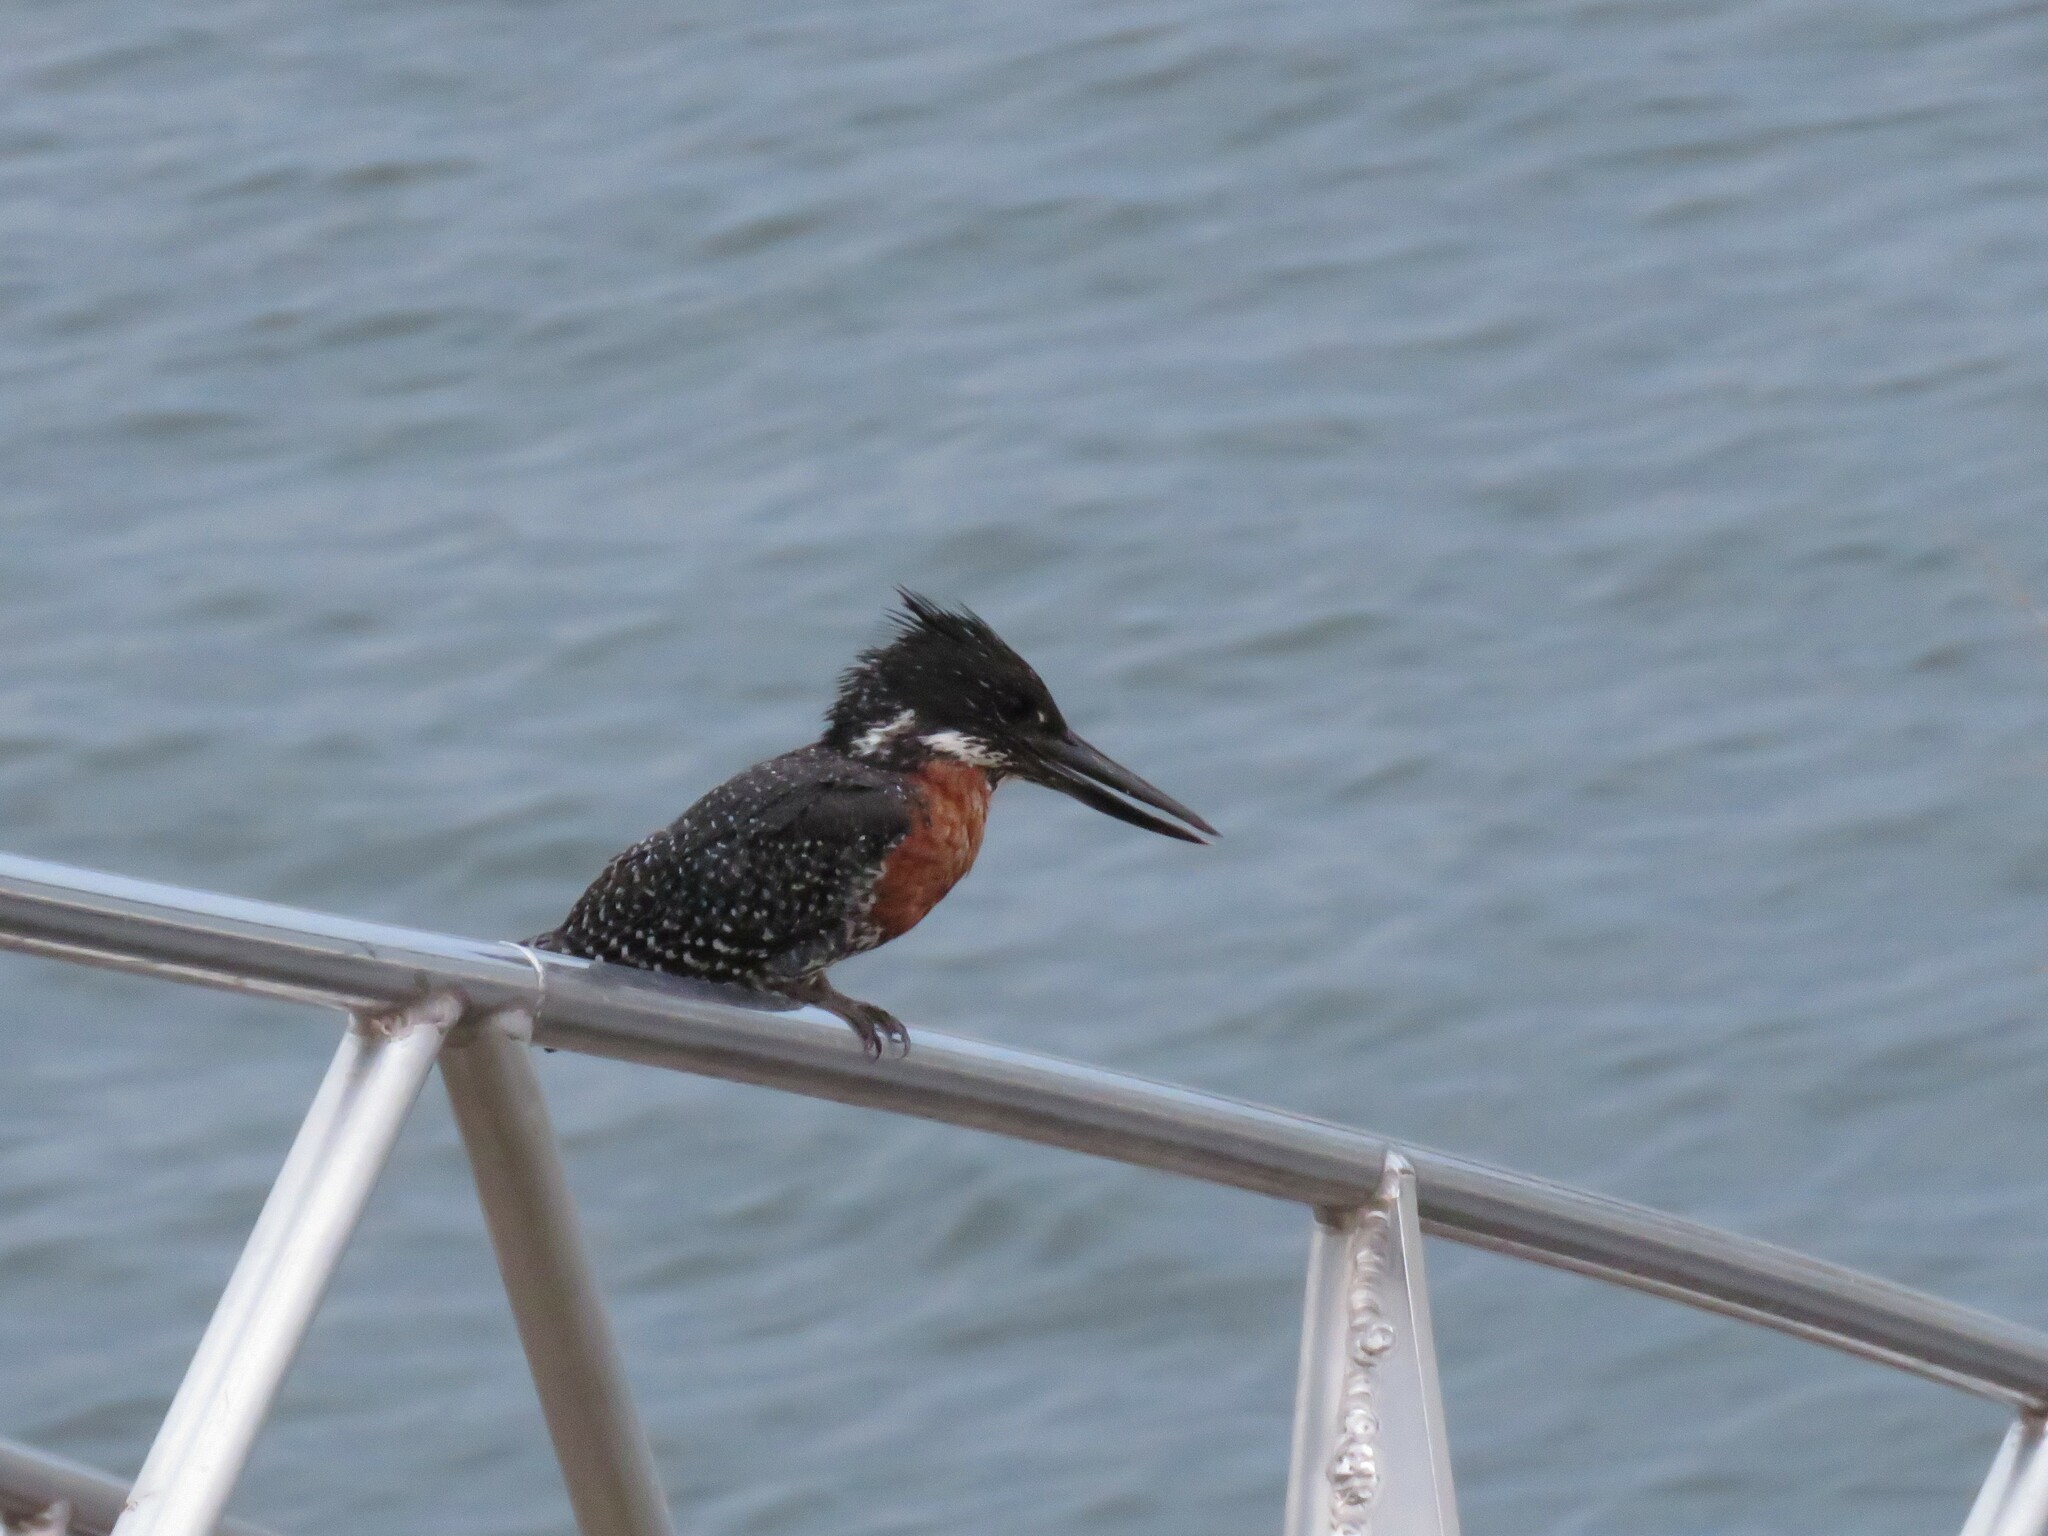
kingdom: Animalia
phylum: Chordata
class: Aves
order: Coraciiformes
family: Alcedinidae
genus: Megaceryle
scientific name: Megaceryle maxima
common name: Giant kingfisher
